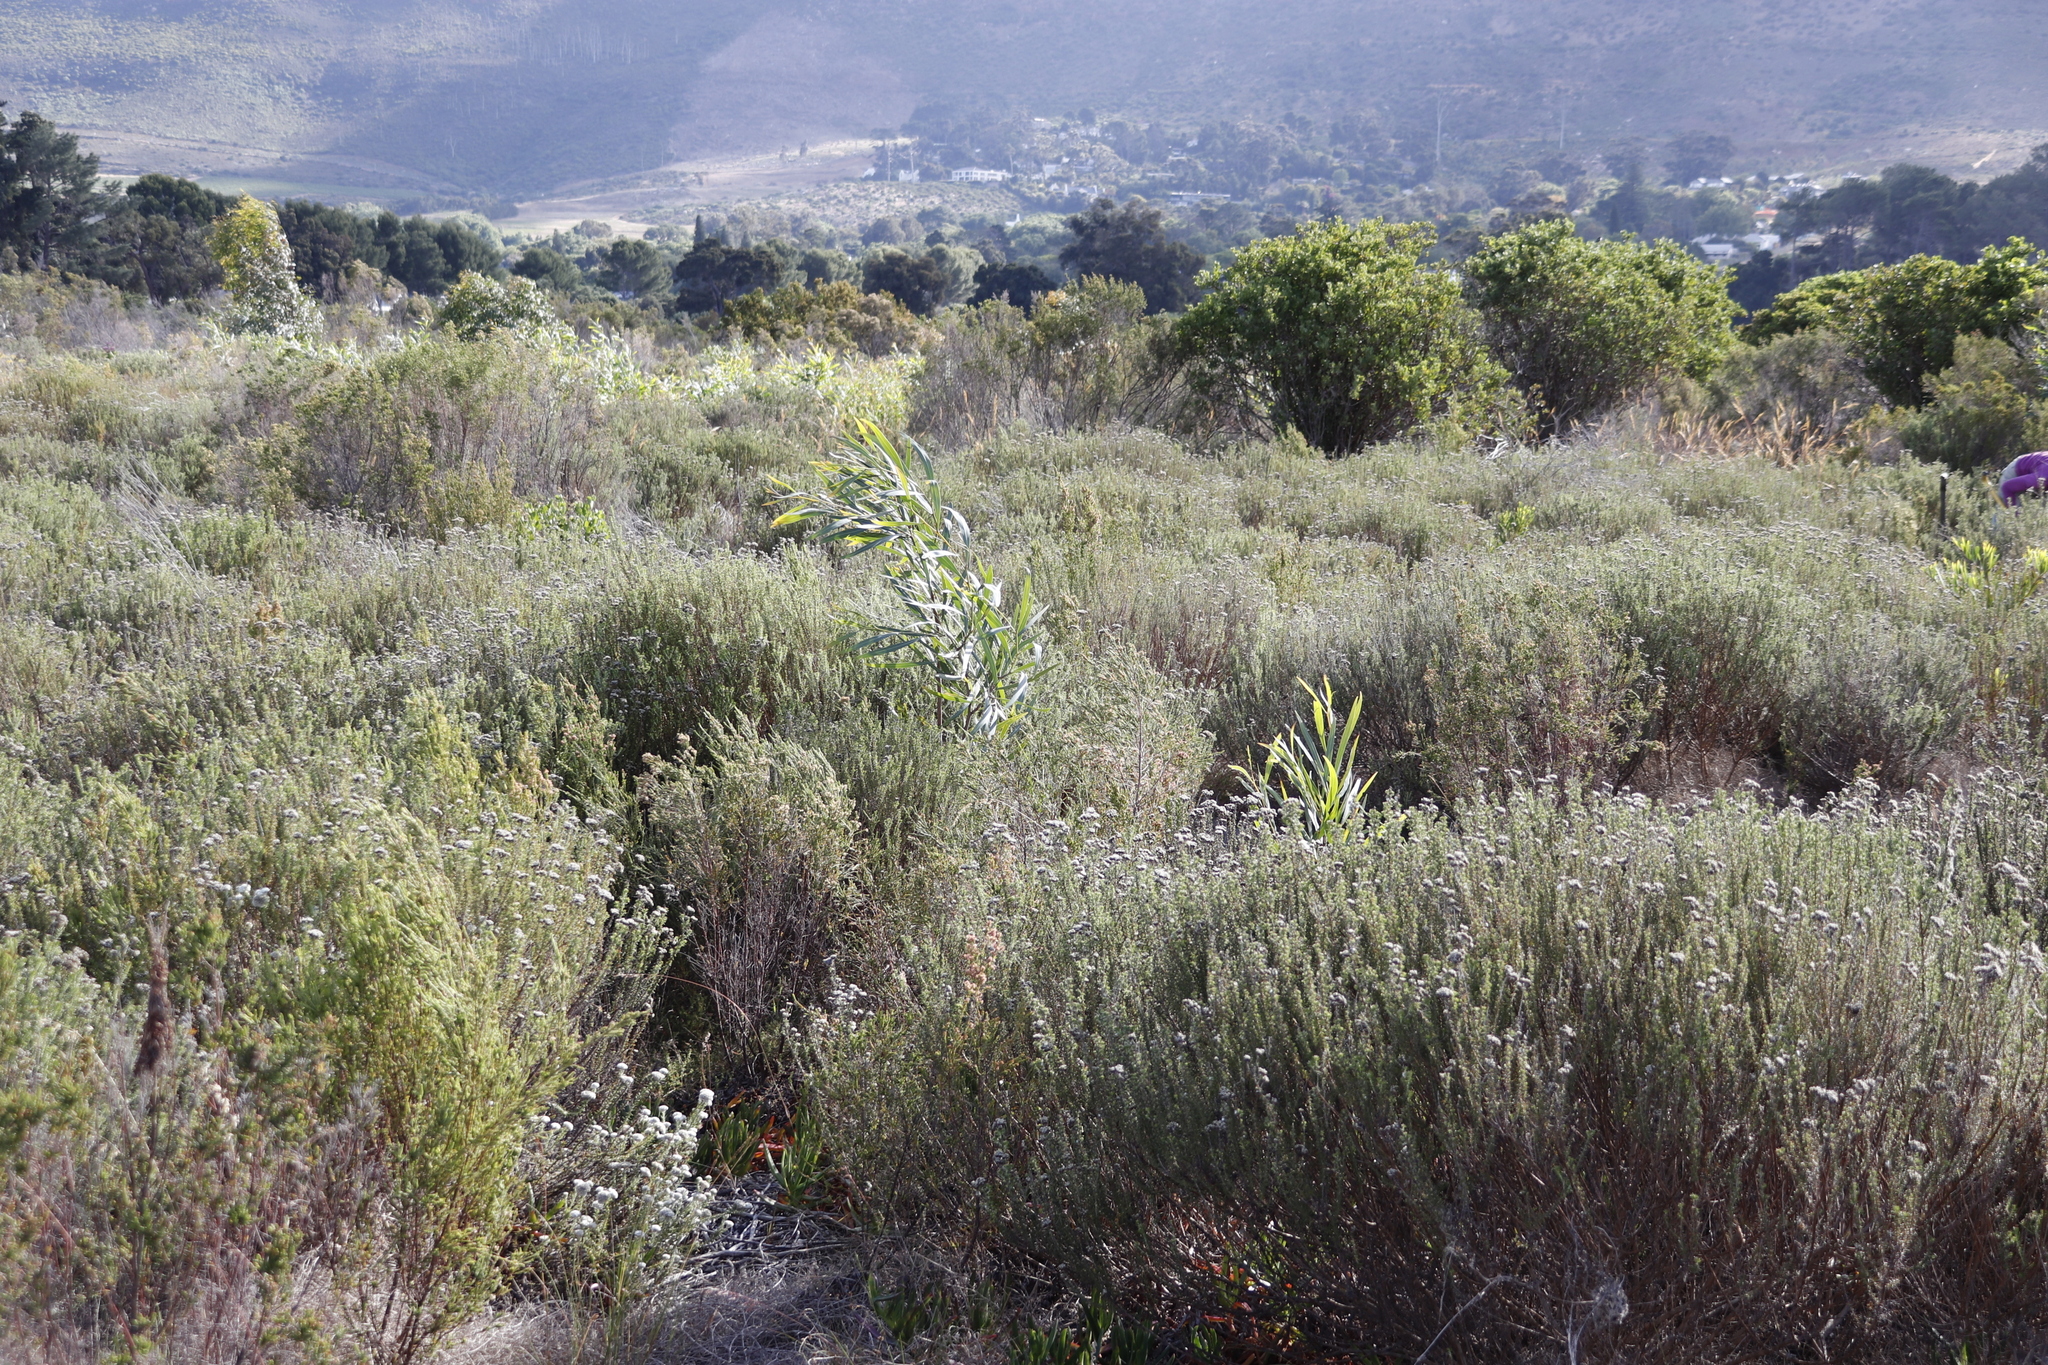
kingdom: Plantae
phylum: Tracheophyta
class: Magnoliopsida
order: Fabales
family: Fabaceae
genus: Acacia
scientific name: Acacia saligna
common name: Orange wattle
